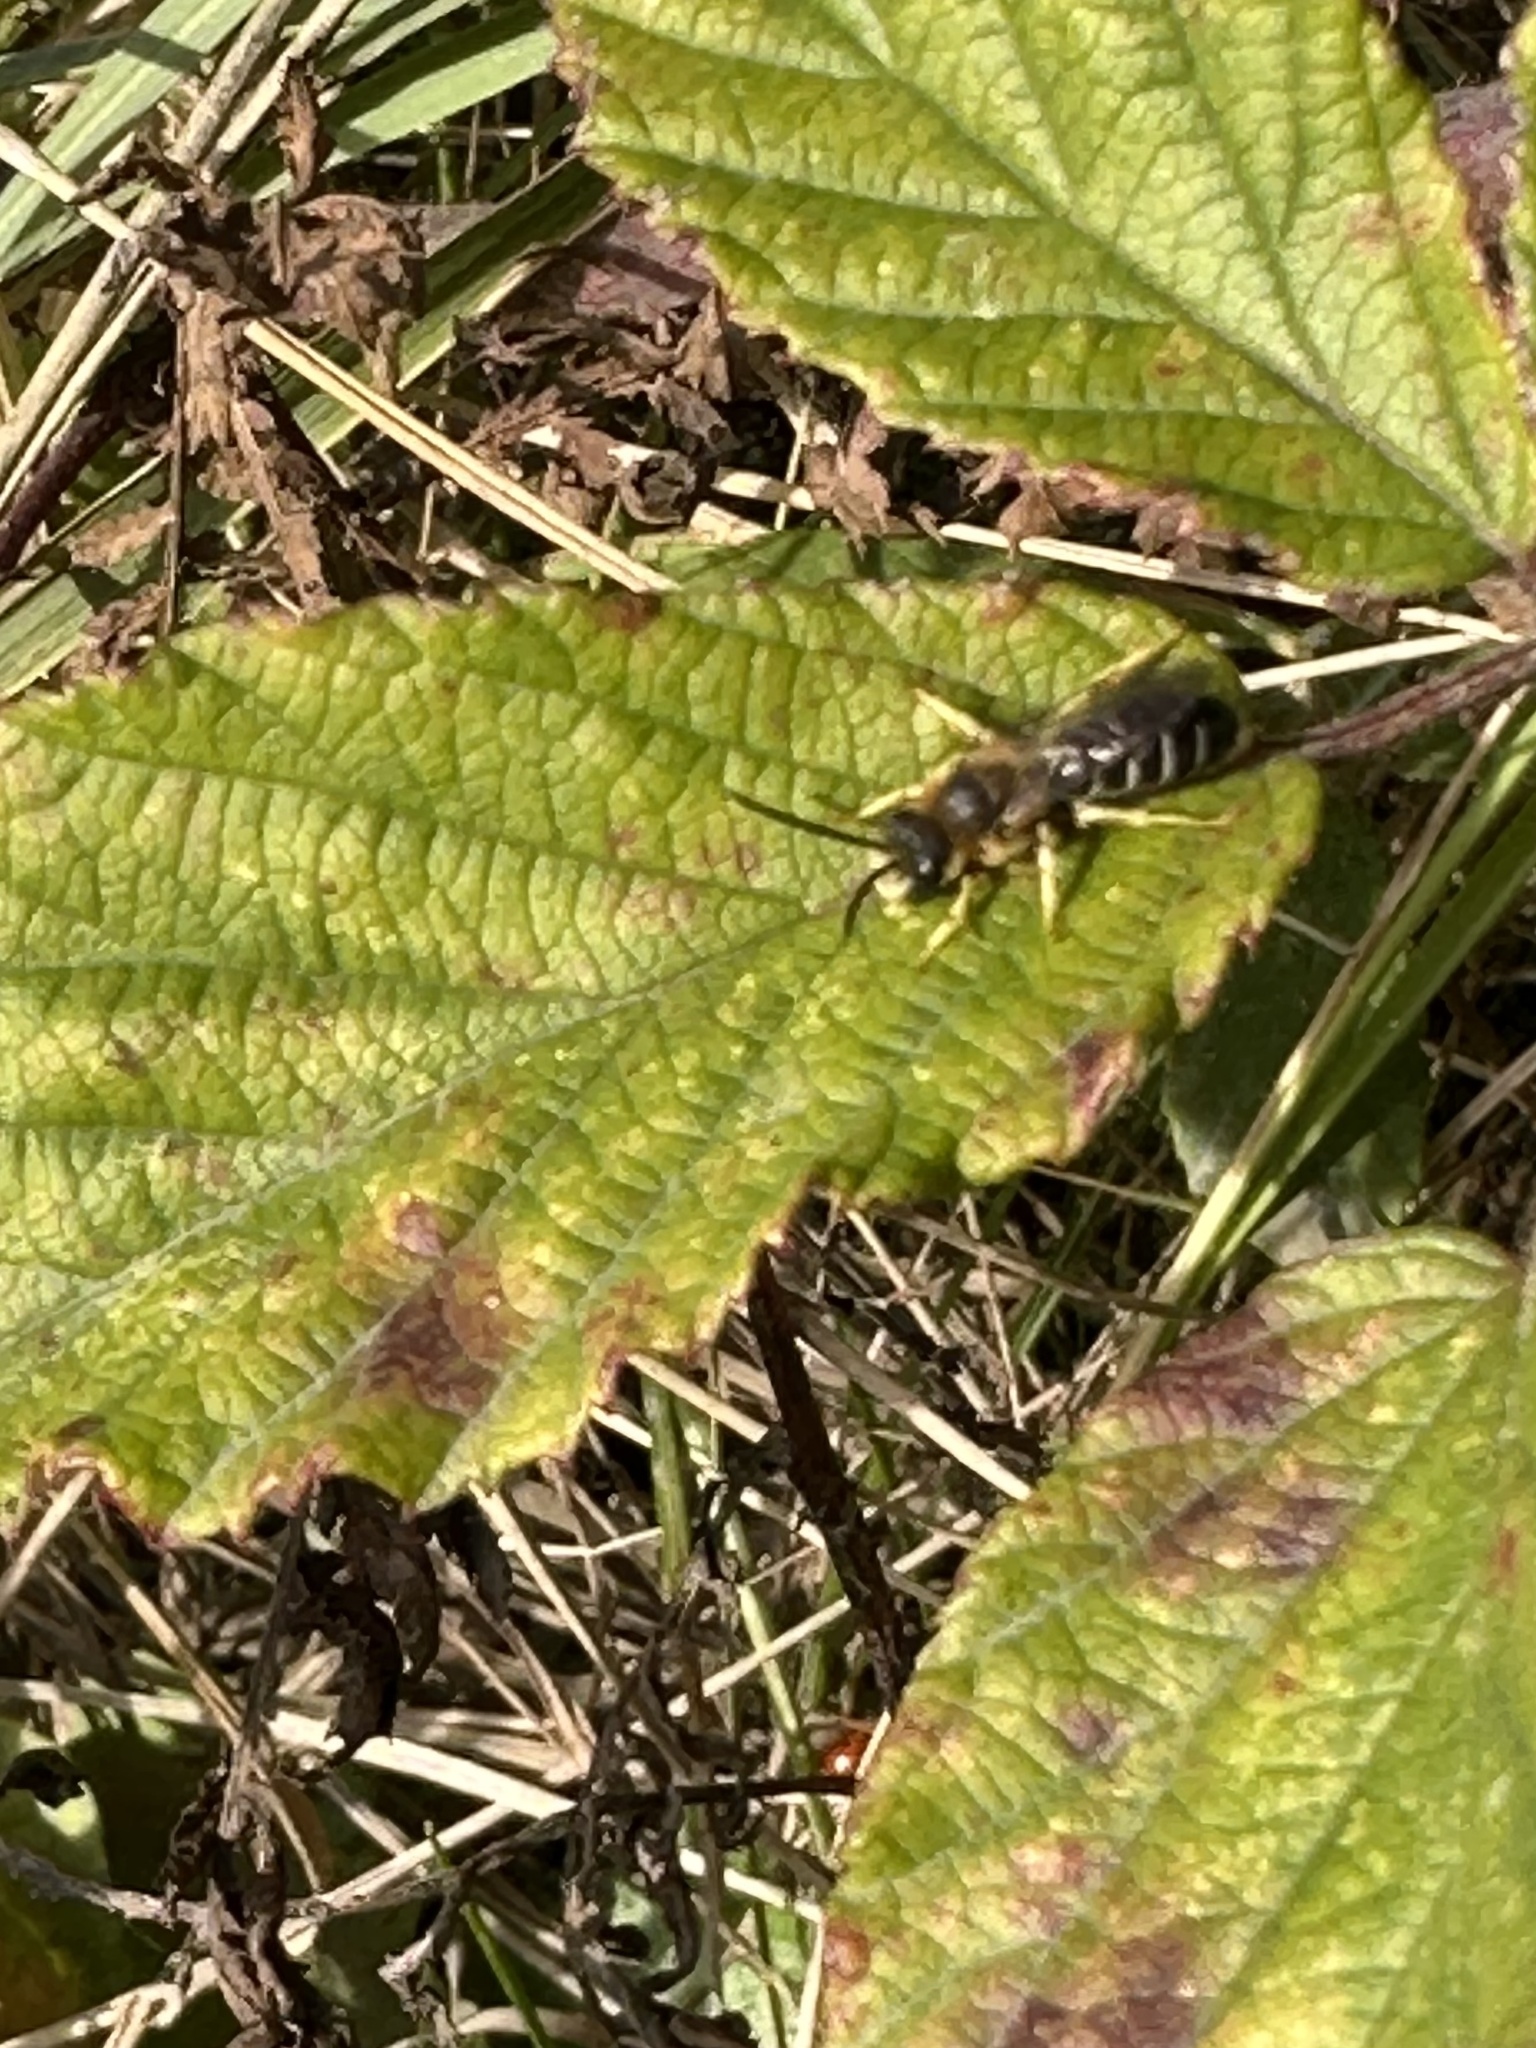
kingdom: Animalia
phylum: Arthropoda
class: Insecta
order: Hymenoptera
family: Halictidae
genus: Halictus
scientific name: Halictus rubicundus
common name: Orange-legged furrow bee
